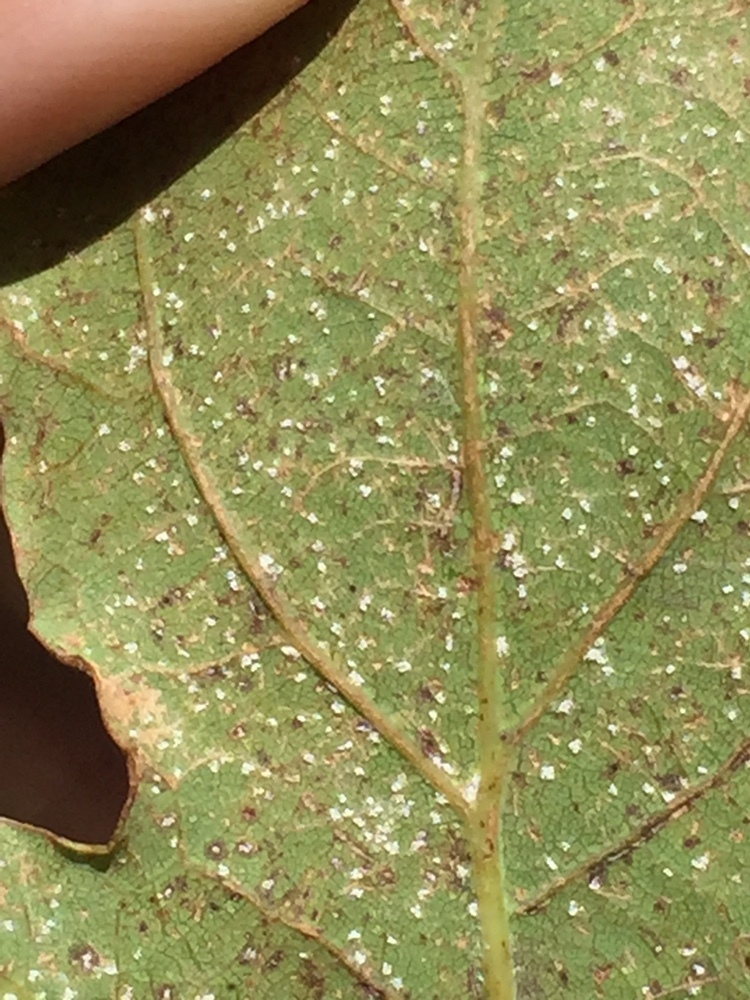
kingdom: Fungi
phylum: Basidiomycota
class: Exobasidiomycetes
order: Microstromatales
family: Microstromataceae
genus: Microstroma
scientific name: Microstroma album
